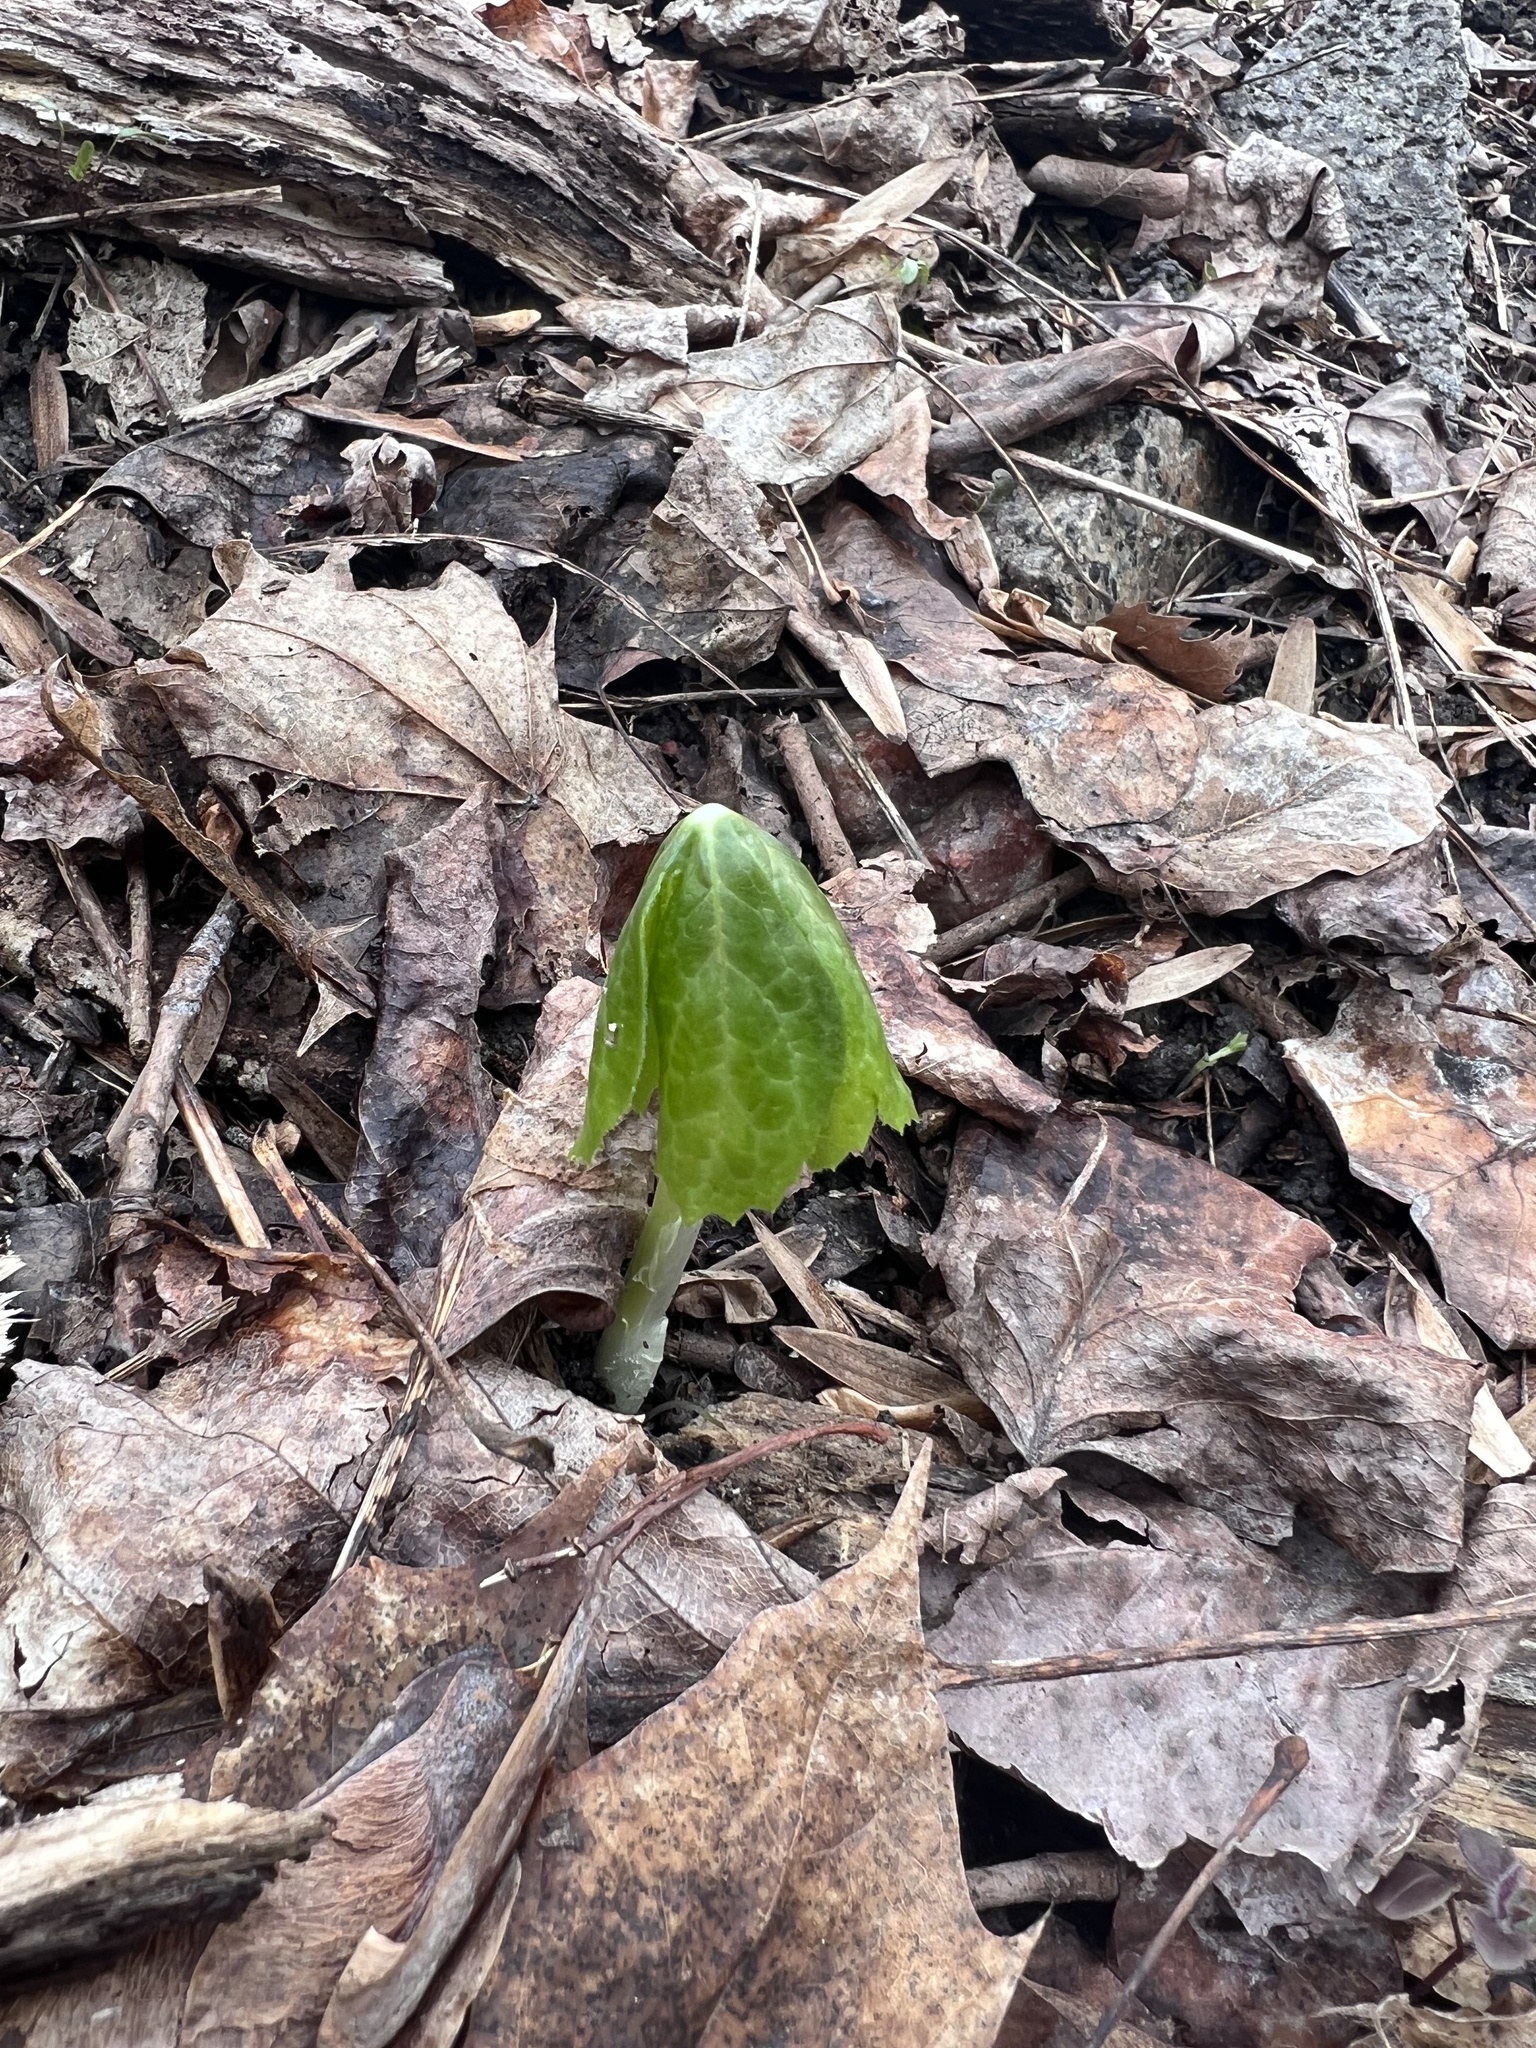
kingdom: Plantae
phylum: Tracheophyta
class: Magnoliopsida
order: Ranunculales
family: Berberidaceae
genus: Podophyllum
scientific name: Podophyllum peltatum
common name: Wild mandrake
